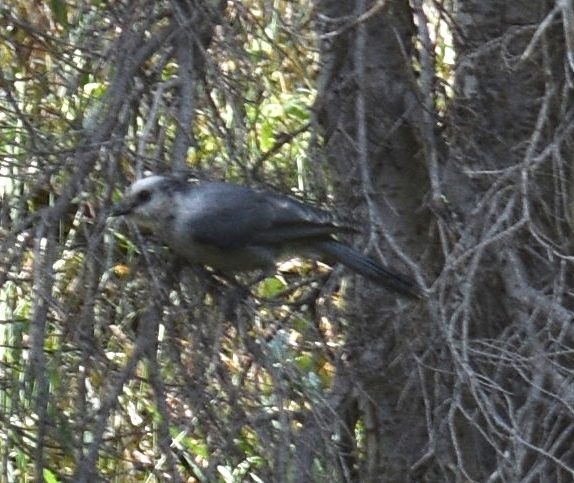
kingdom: Animalia
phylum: Chordata
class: Aves
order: Passeriformes
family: Corvidae
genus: Perisoreus
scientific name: Perisoreus canadensis
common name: Gray jay
